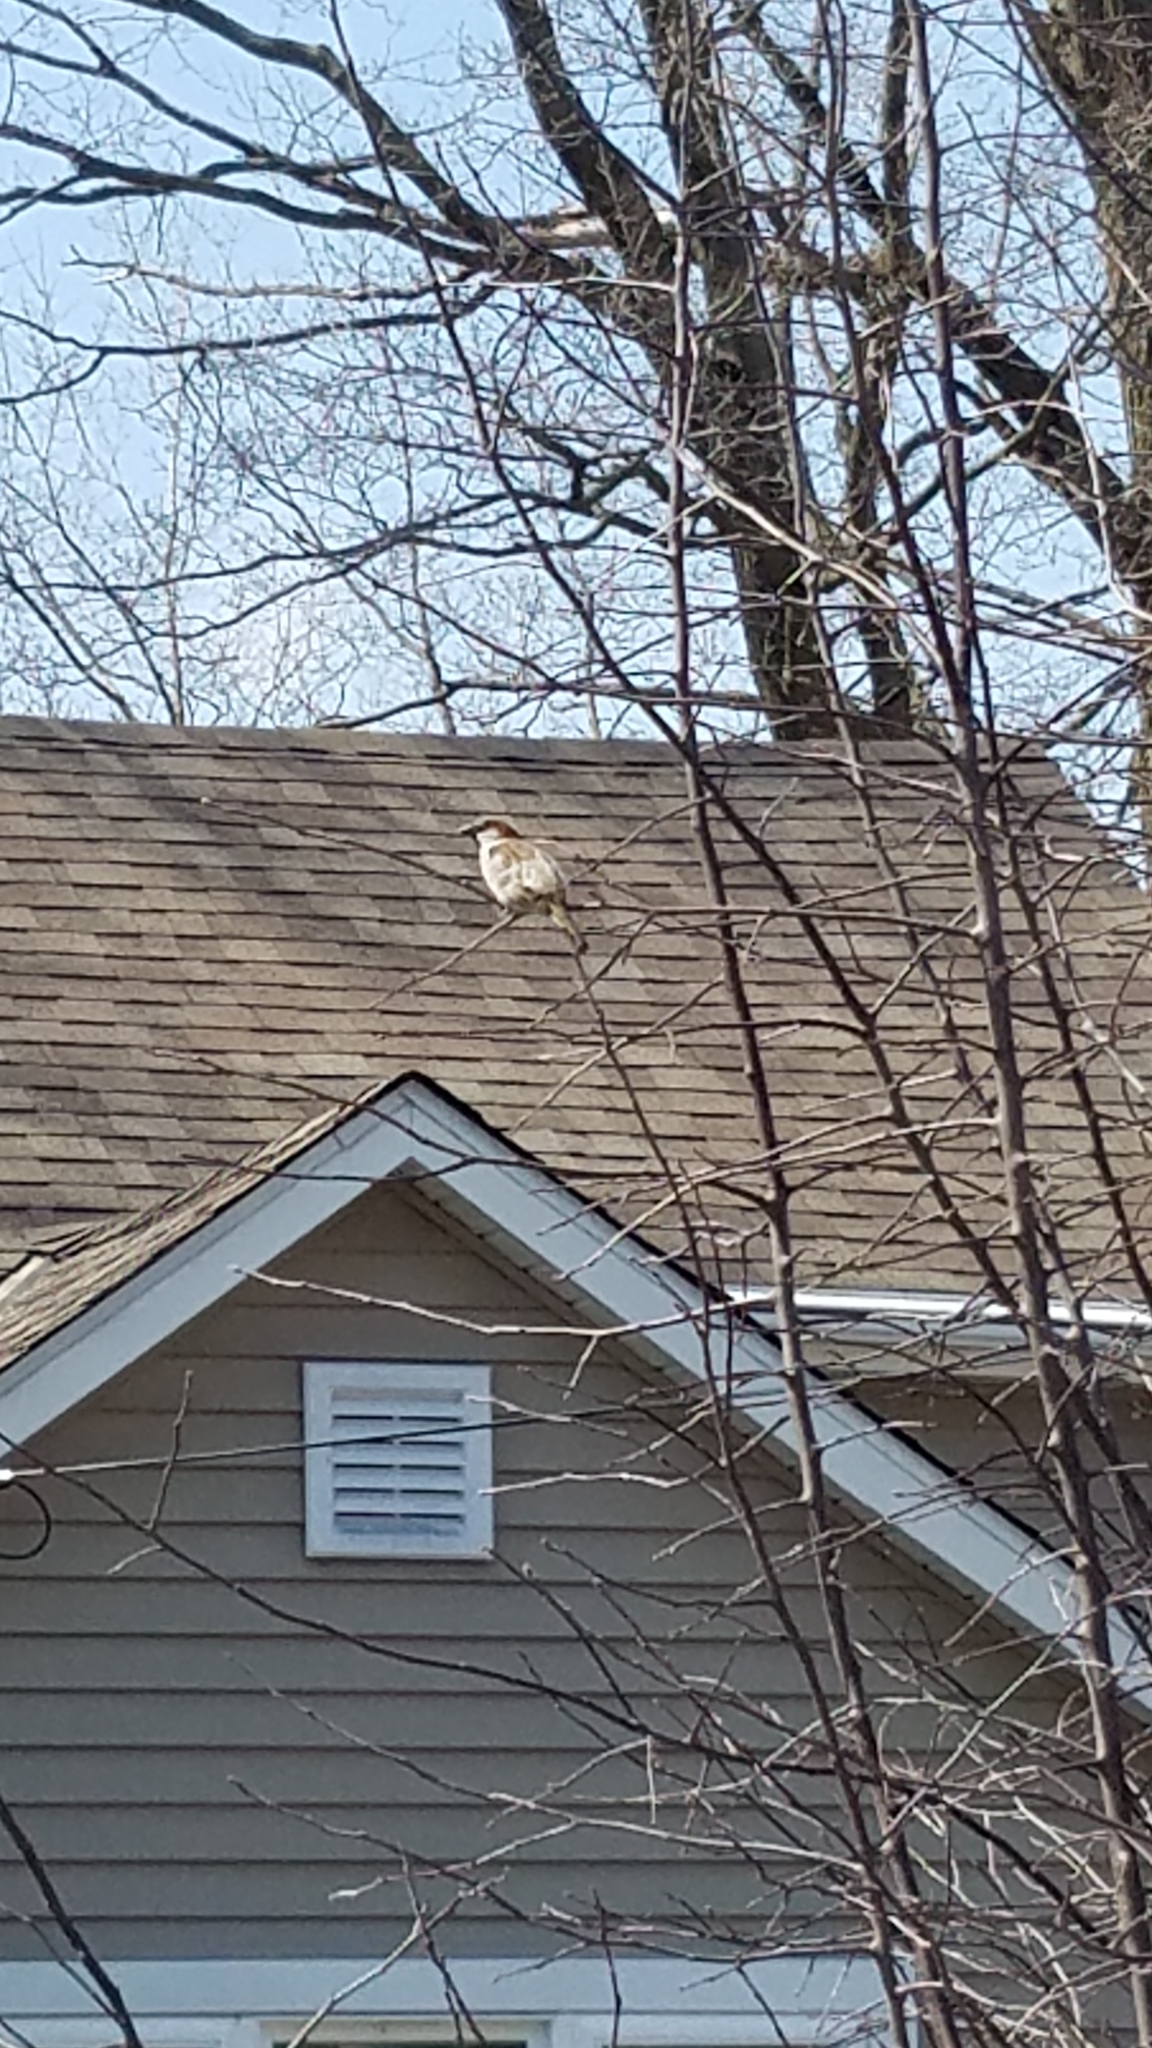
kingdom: Animalia
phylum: Chordata
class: Aves
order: Passeriformes
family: Passeridae
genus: Passer
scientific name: Passer domesticus
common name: House sparrow
